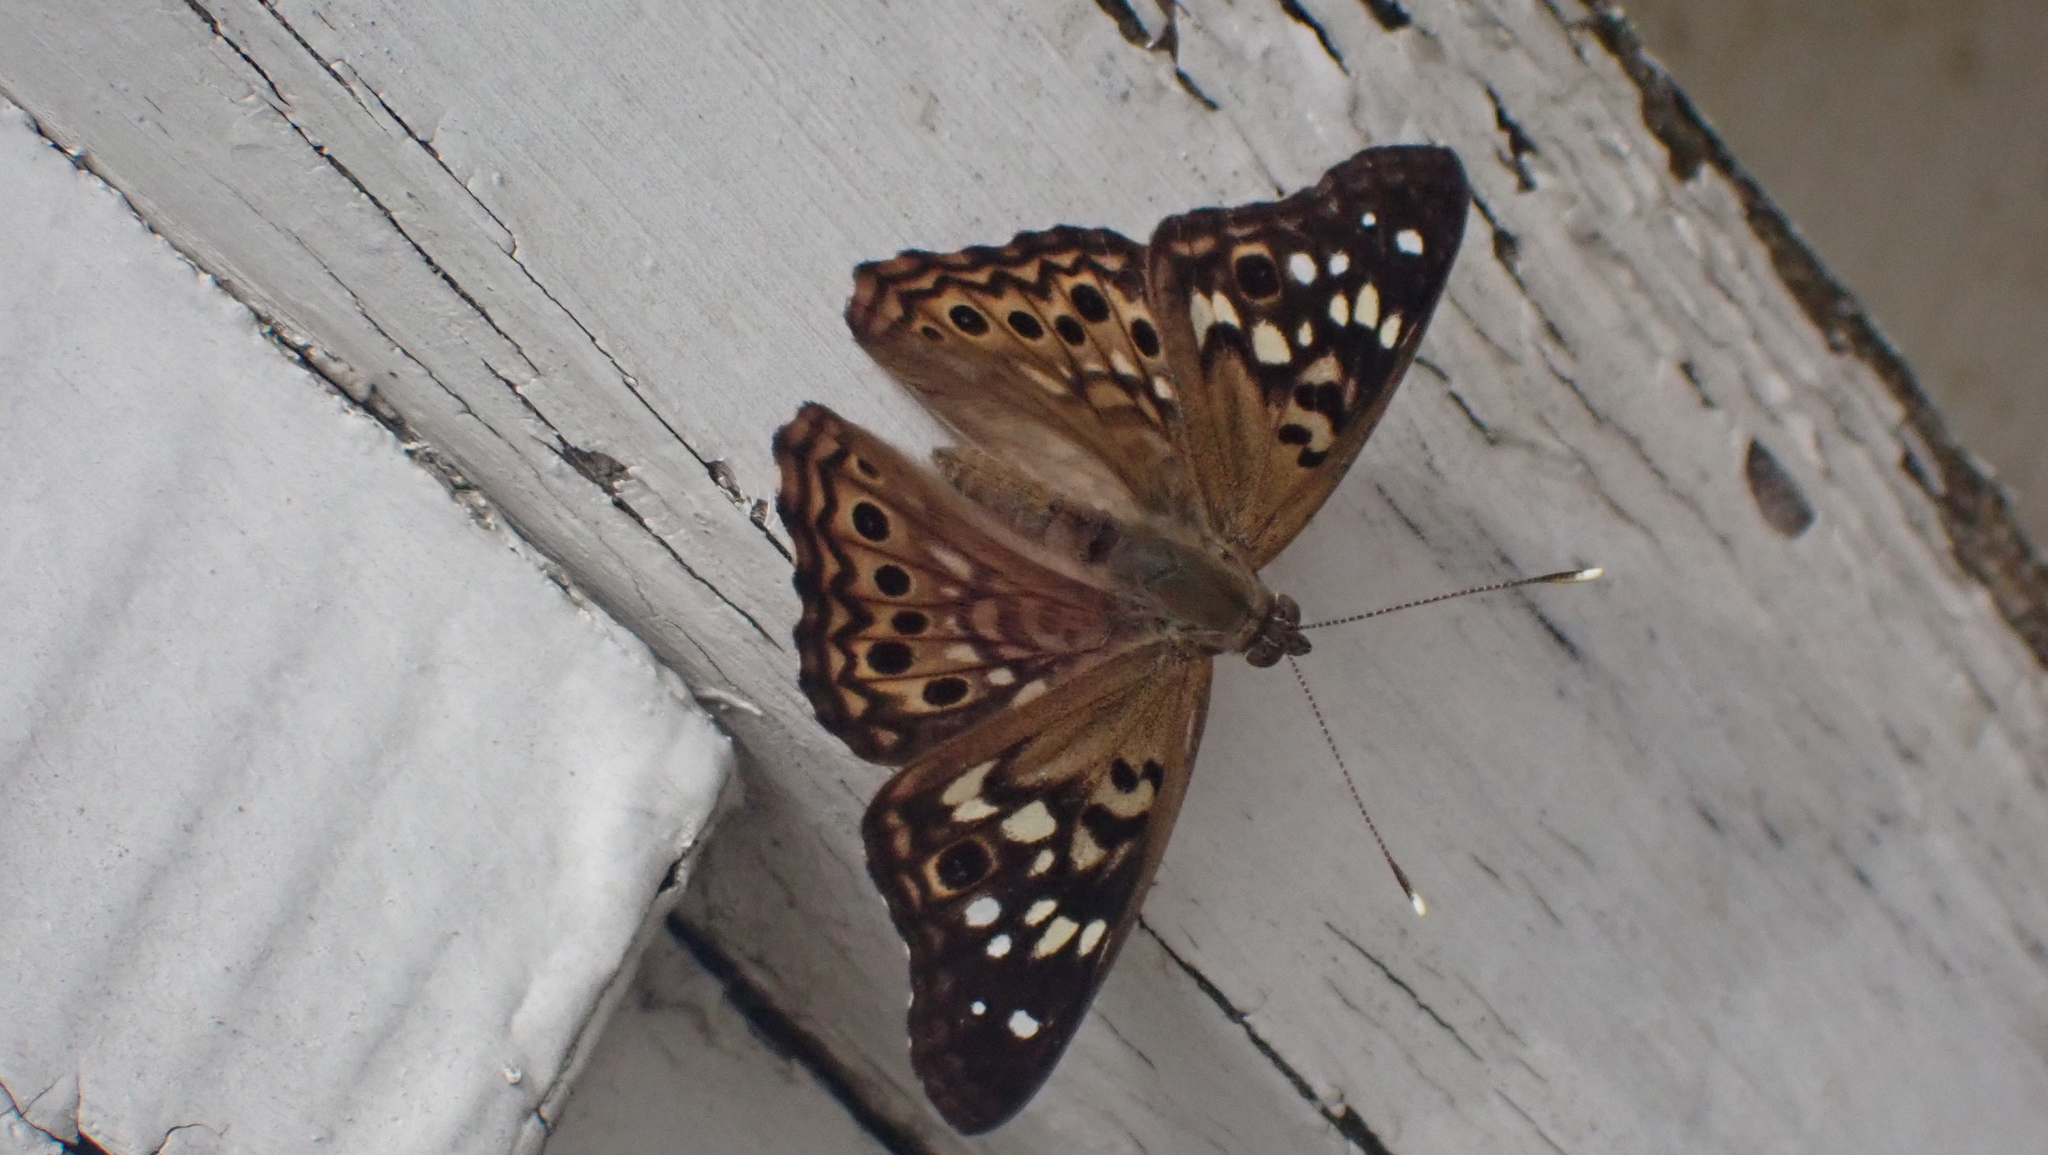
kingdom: Animalia
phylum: Arthropoda
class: Insecta
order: Lepidoptera
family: Nymphalidae
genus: Asterocampa
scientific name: Asterocampa celtis
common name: Hackberry emperor
